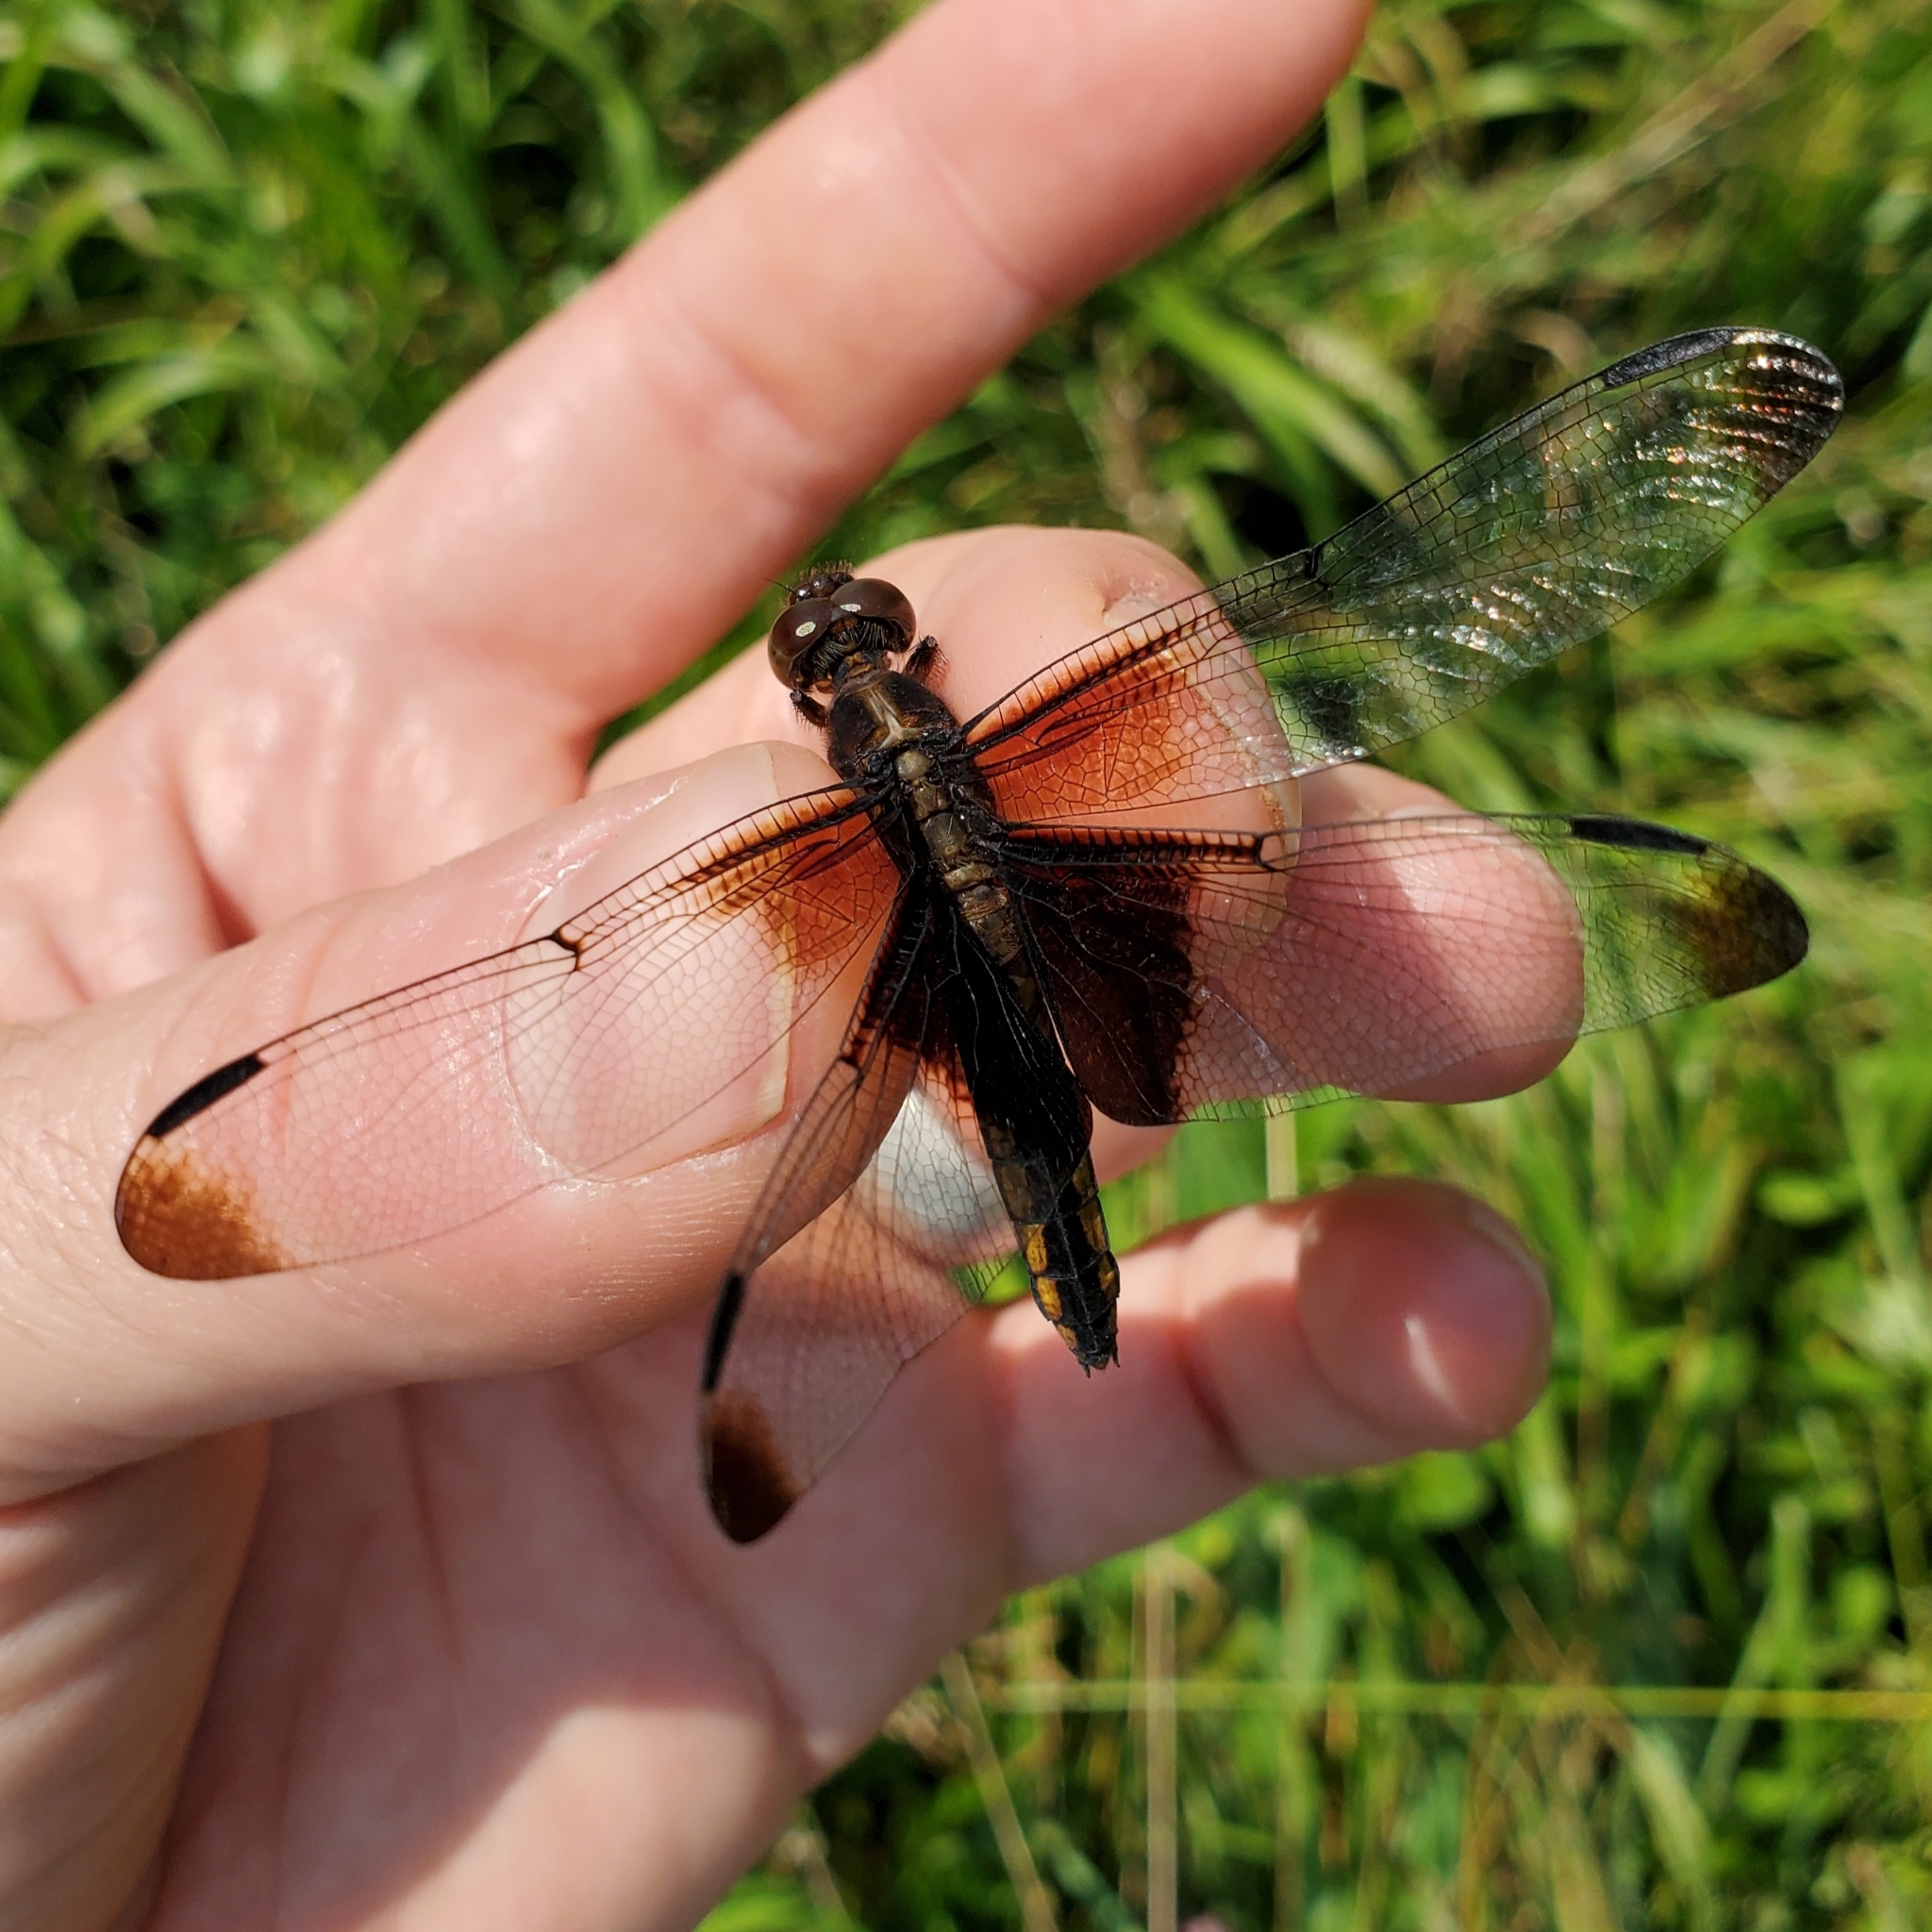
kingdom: Animalia
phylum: Arthropoda
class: Insecta
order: Odonata
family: Libellulidae
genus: Libellula
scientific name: Libellula luctuosa
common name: Widow skimmer
